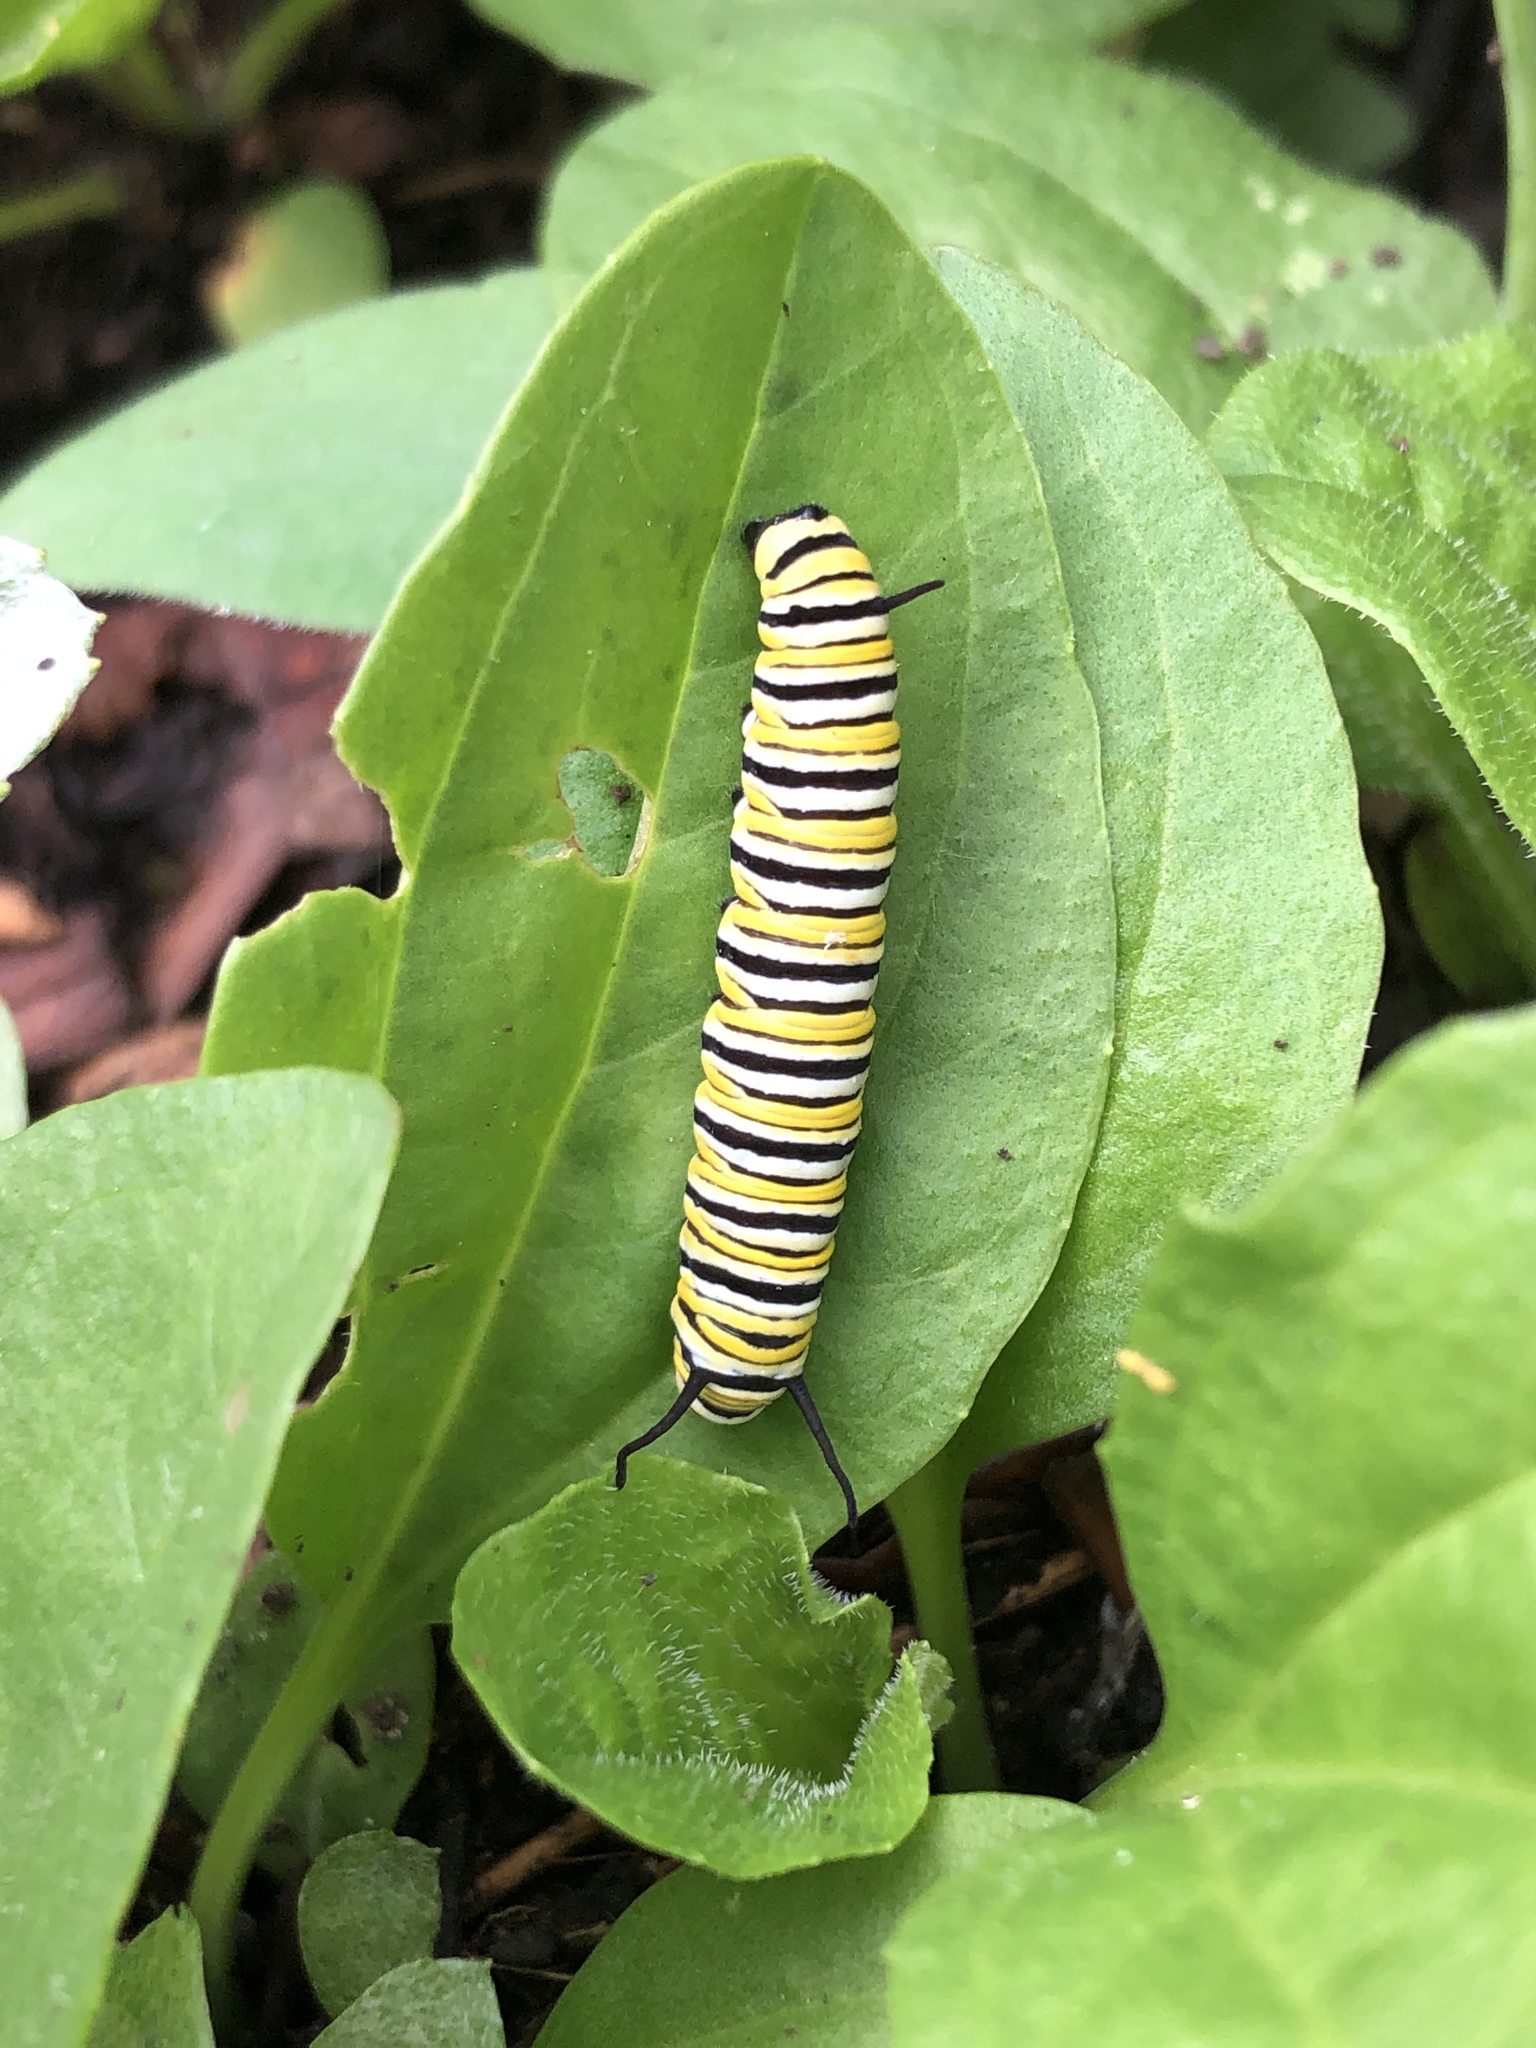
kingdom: Animalia
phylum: Arthropoda
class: Insecta
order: Lepidoptera
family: Nymphalidae
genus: Danaus
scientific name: Danaus plexippus
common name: Monarch
